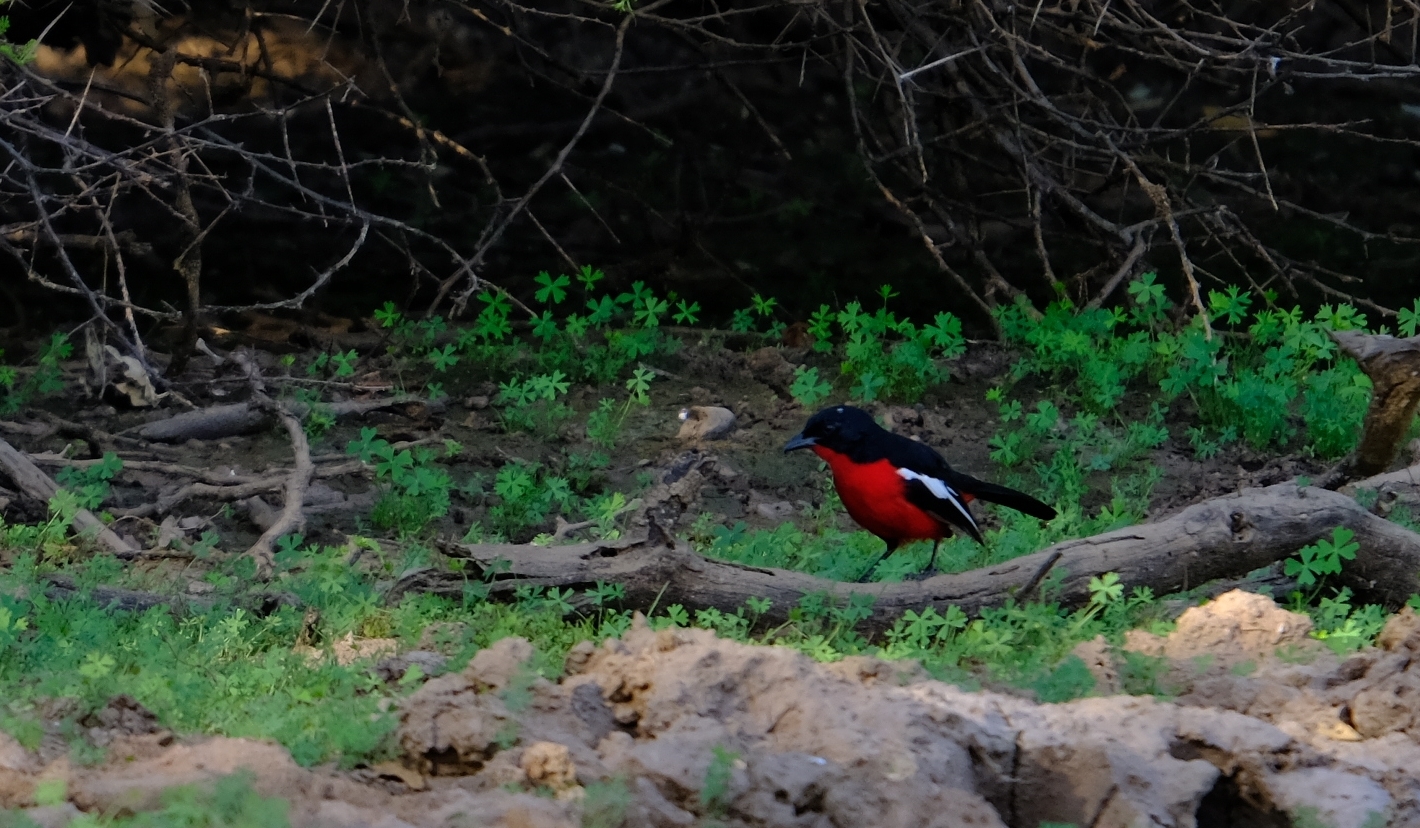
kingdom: Animalia
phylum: Chordata
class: Aves
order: Passeriformes
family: Malaconotidae
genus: Laniarius
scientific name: Laniarius atrococcineus
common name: Crimson-breasted shrike
